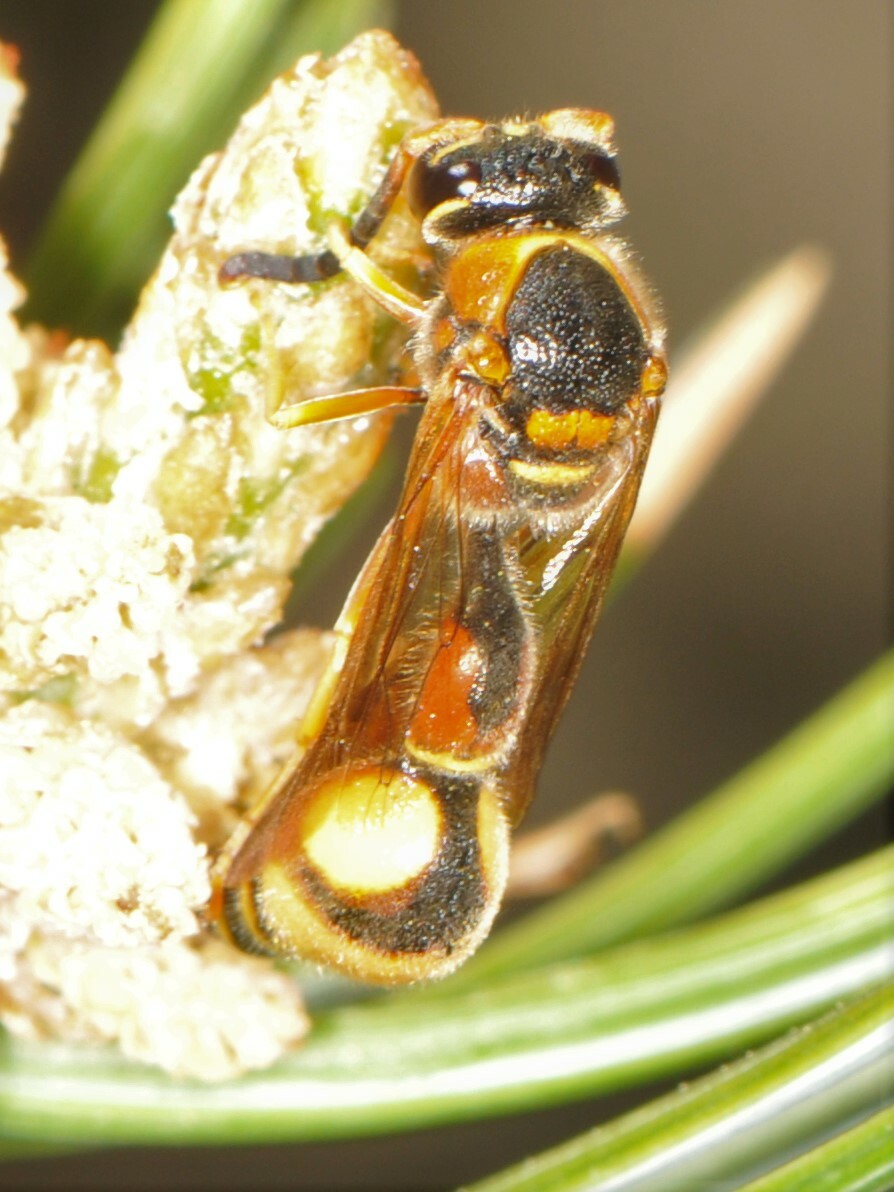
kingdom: Animalia
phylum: Arthropoda
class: Insecta
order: Hymenoptera
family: Vespidae
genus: Eumenes
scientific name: Eumenes bollii
